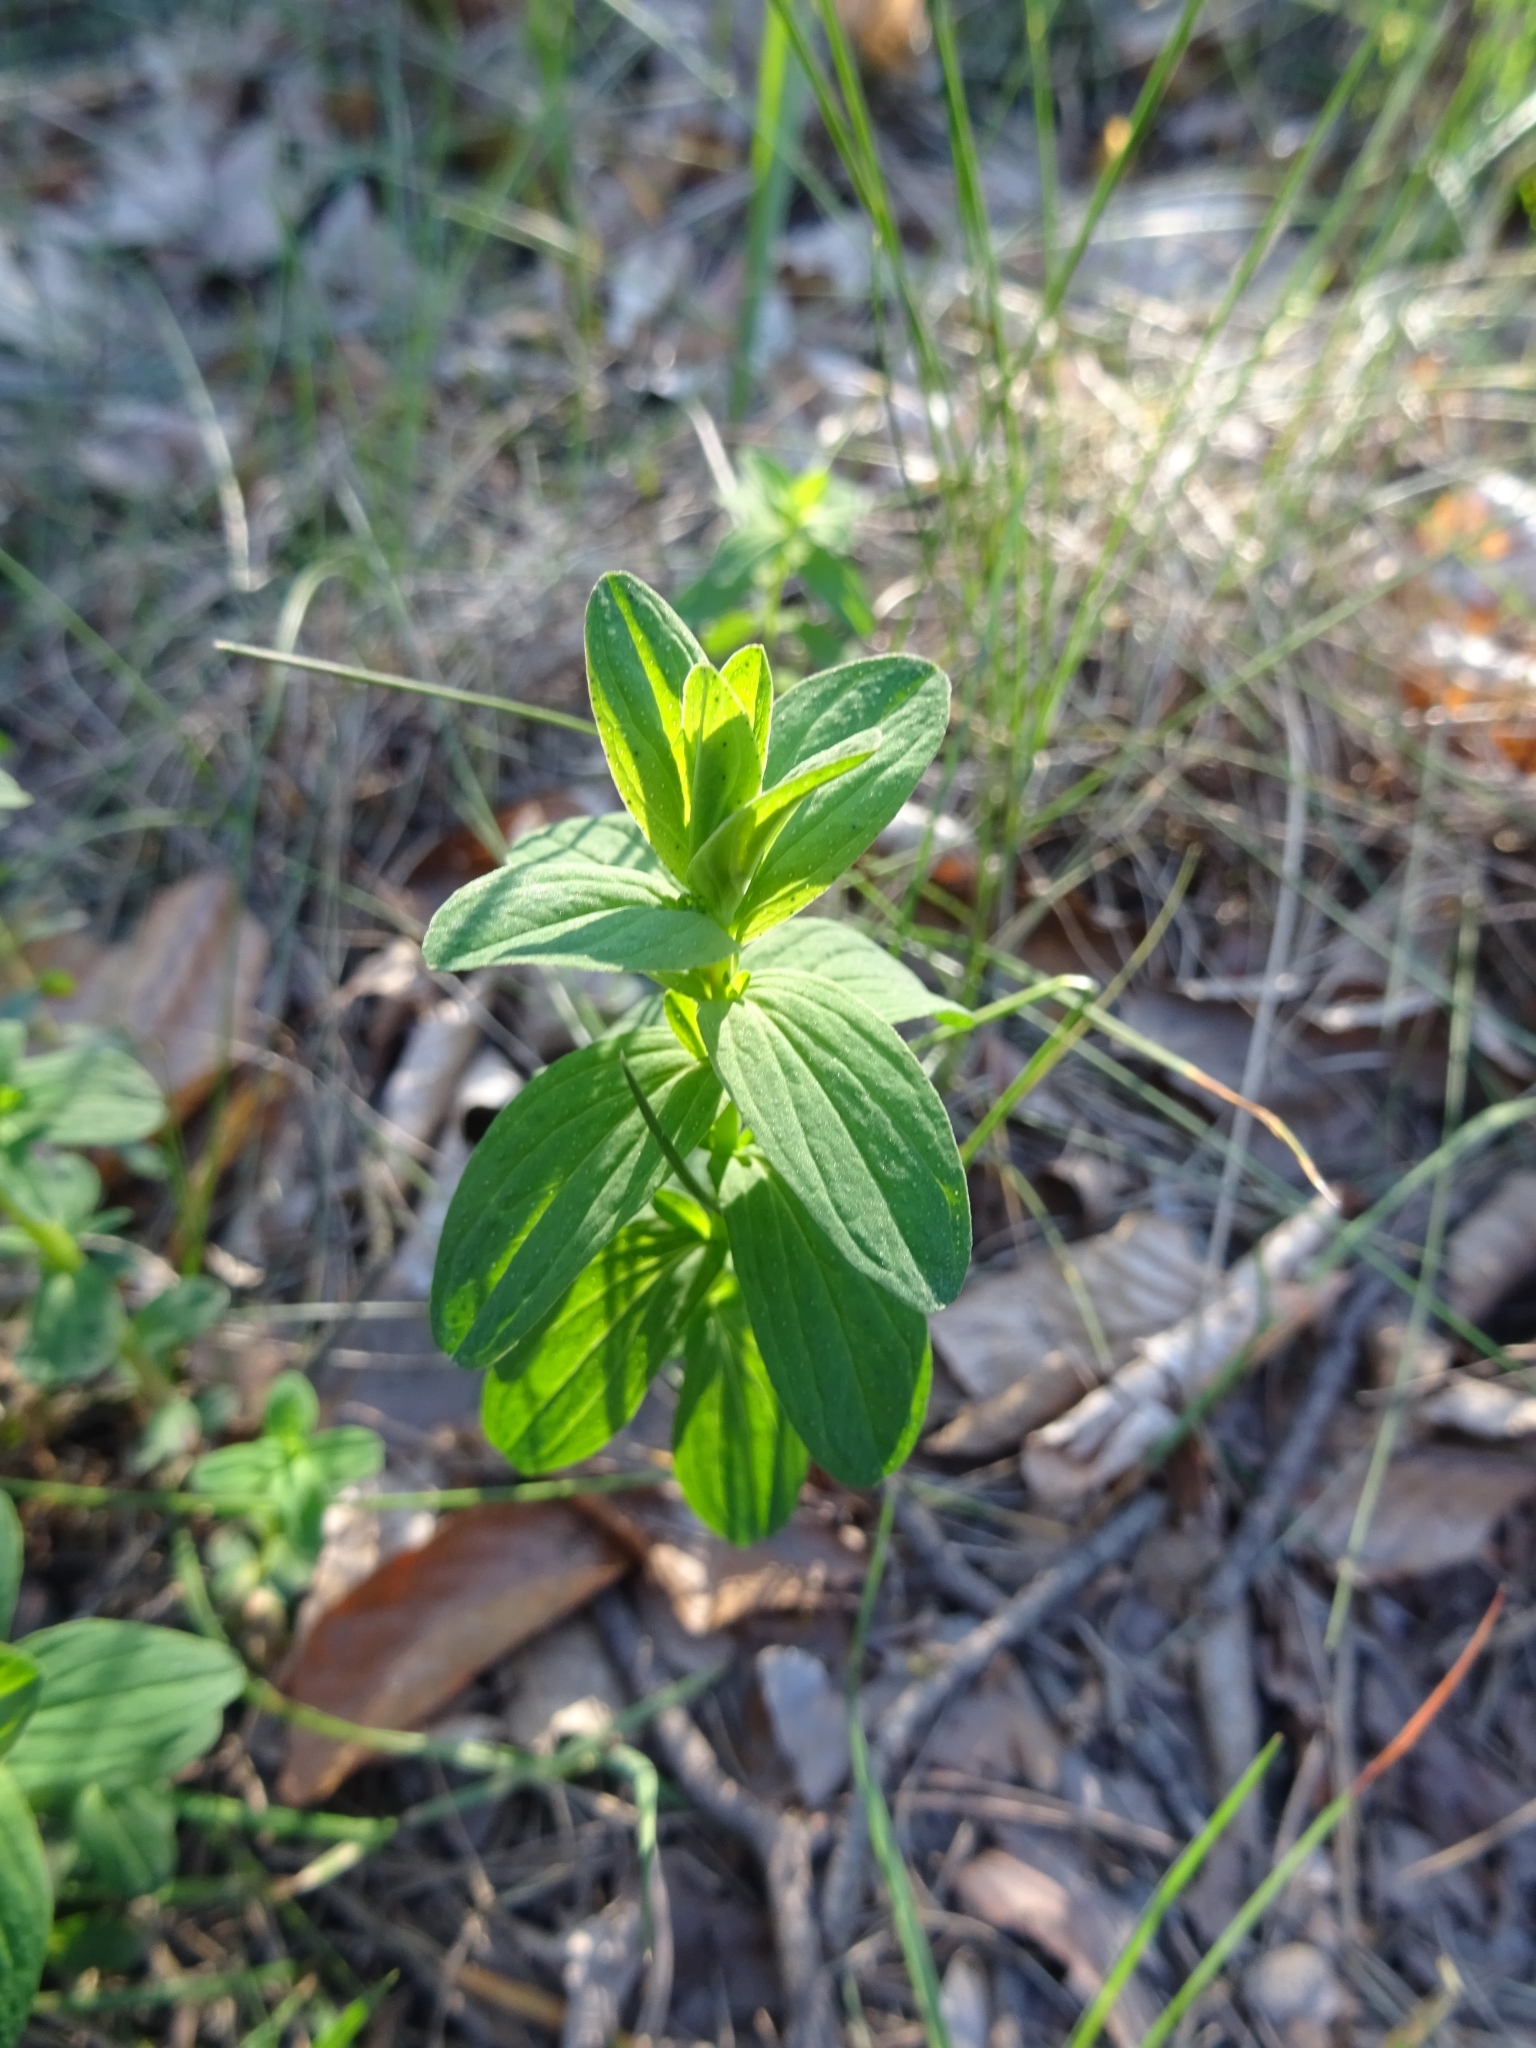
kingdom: Plantae
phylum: Tracheophyta
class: Magnoliopsida
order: Malpighiales
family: Hypericaceae
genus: Hypericum
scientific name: Hypericum perforatum
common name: Common st. johnswort
